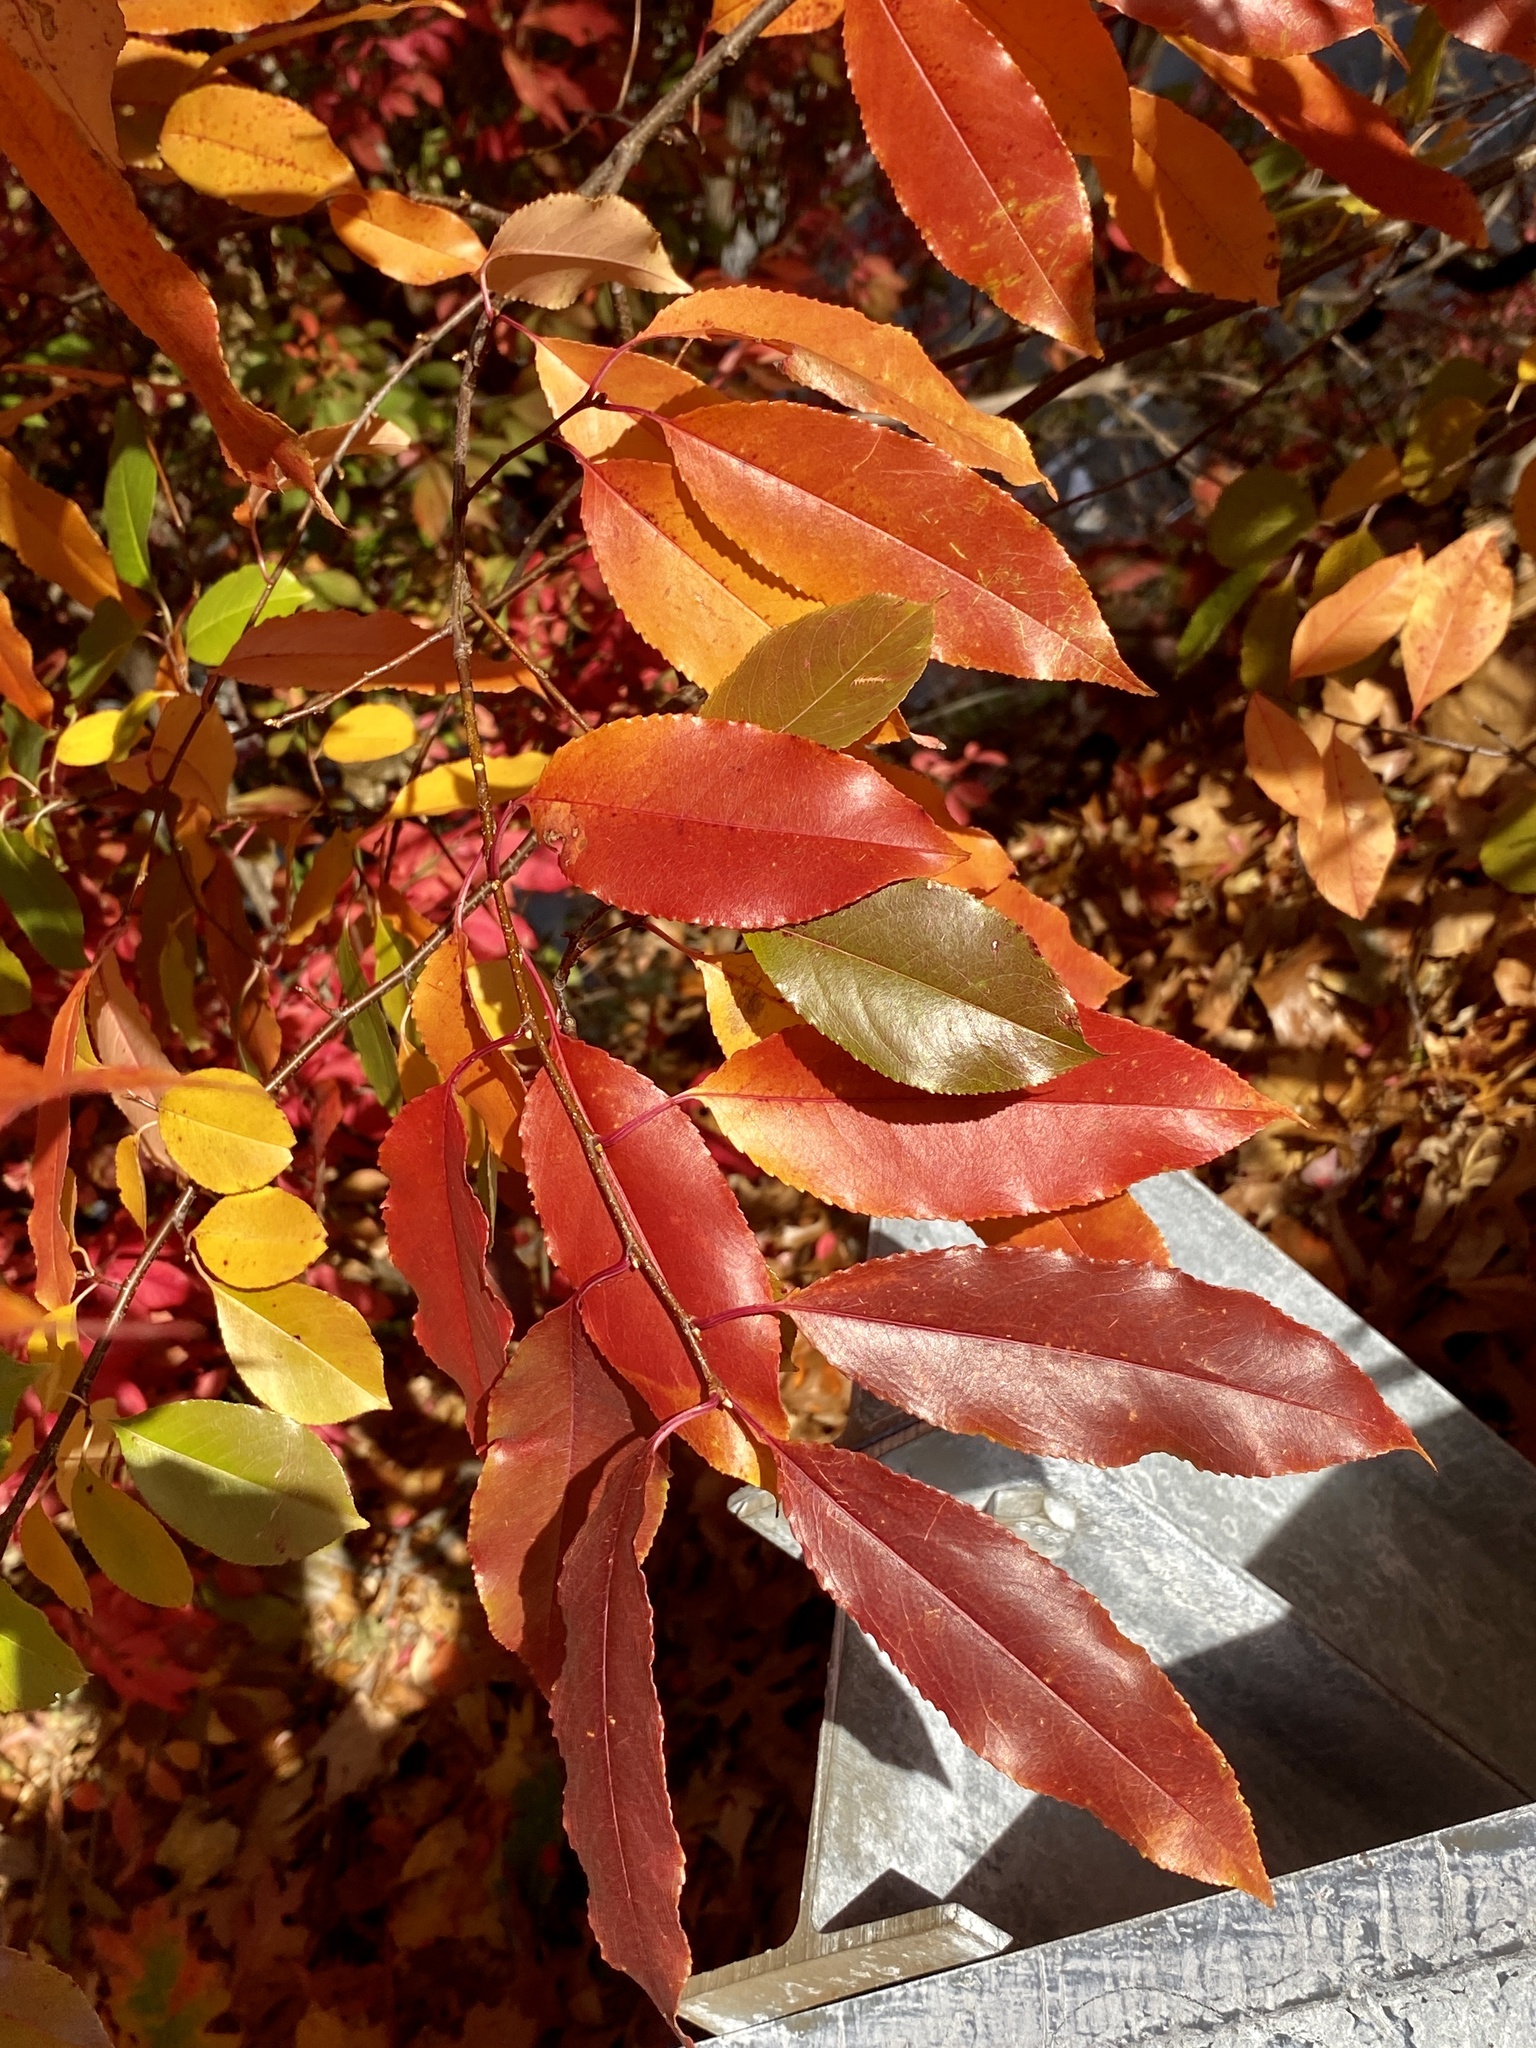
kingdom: Plantae
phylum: Tracheophyta
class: Magnoliopsida
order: Rosales
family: Rosaceae
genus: Prunus
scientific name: Prunus serotina
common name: Black cherry
